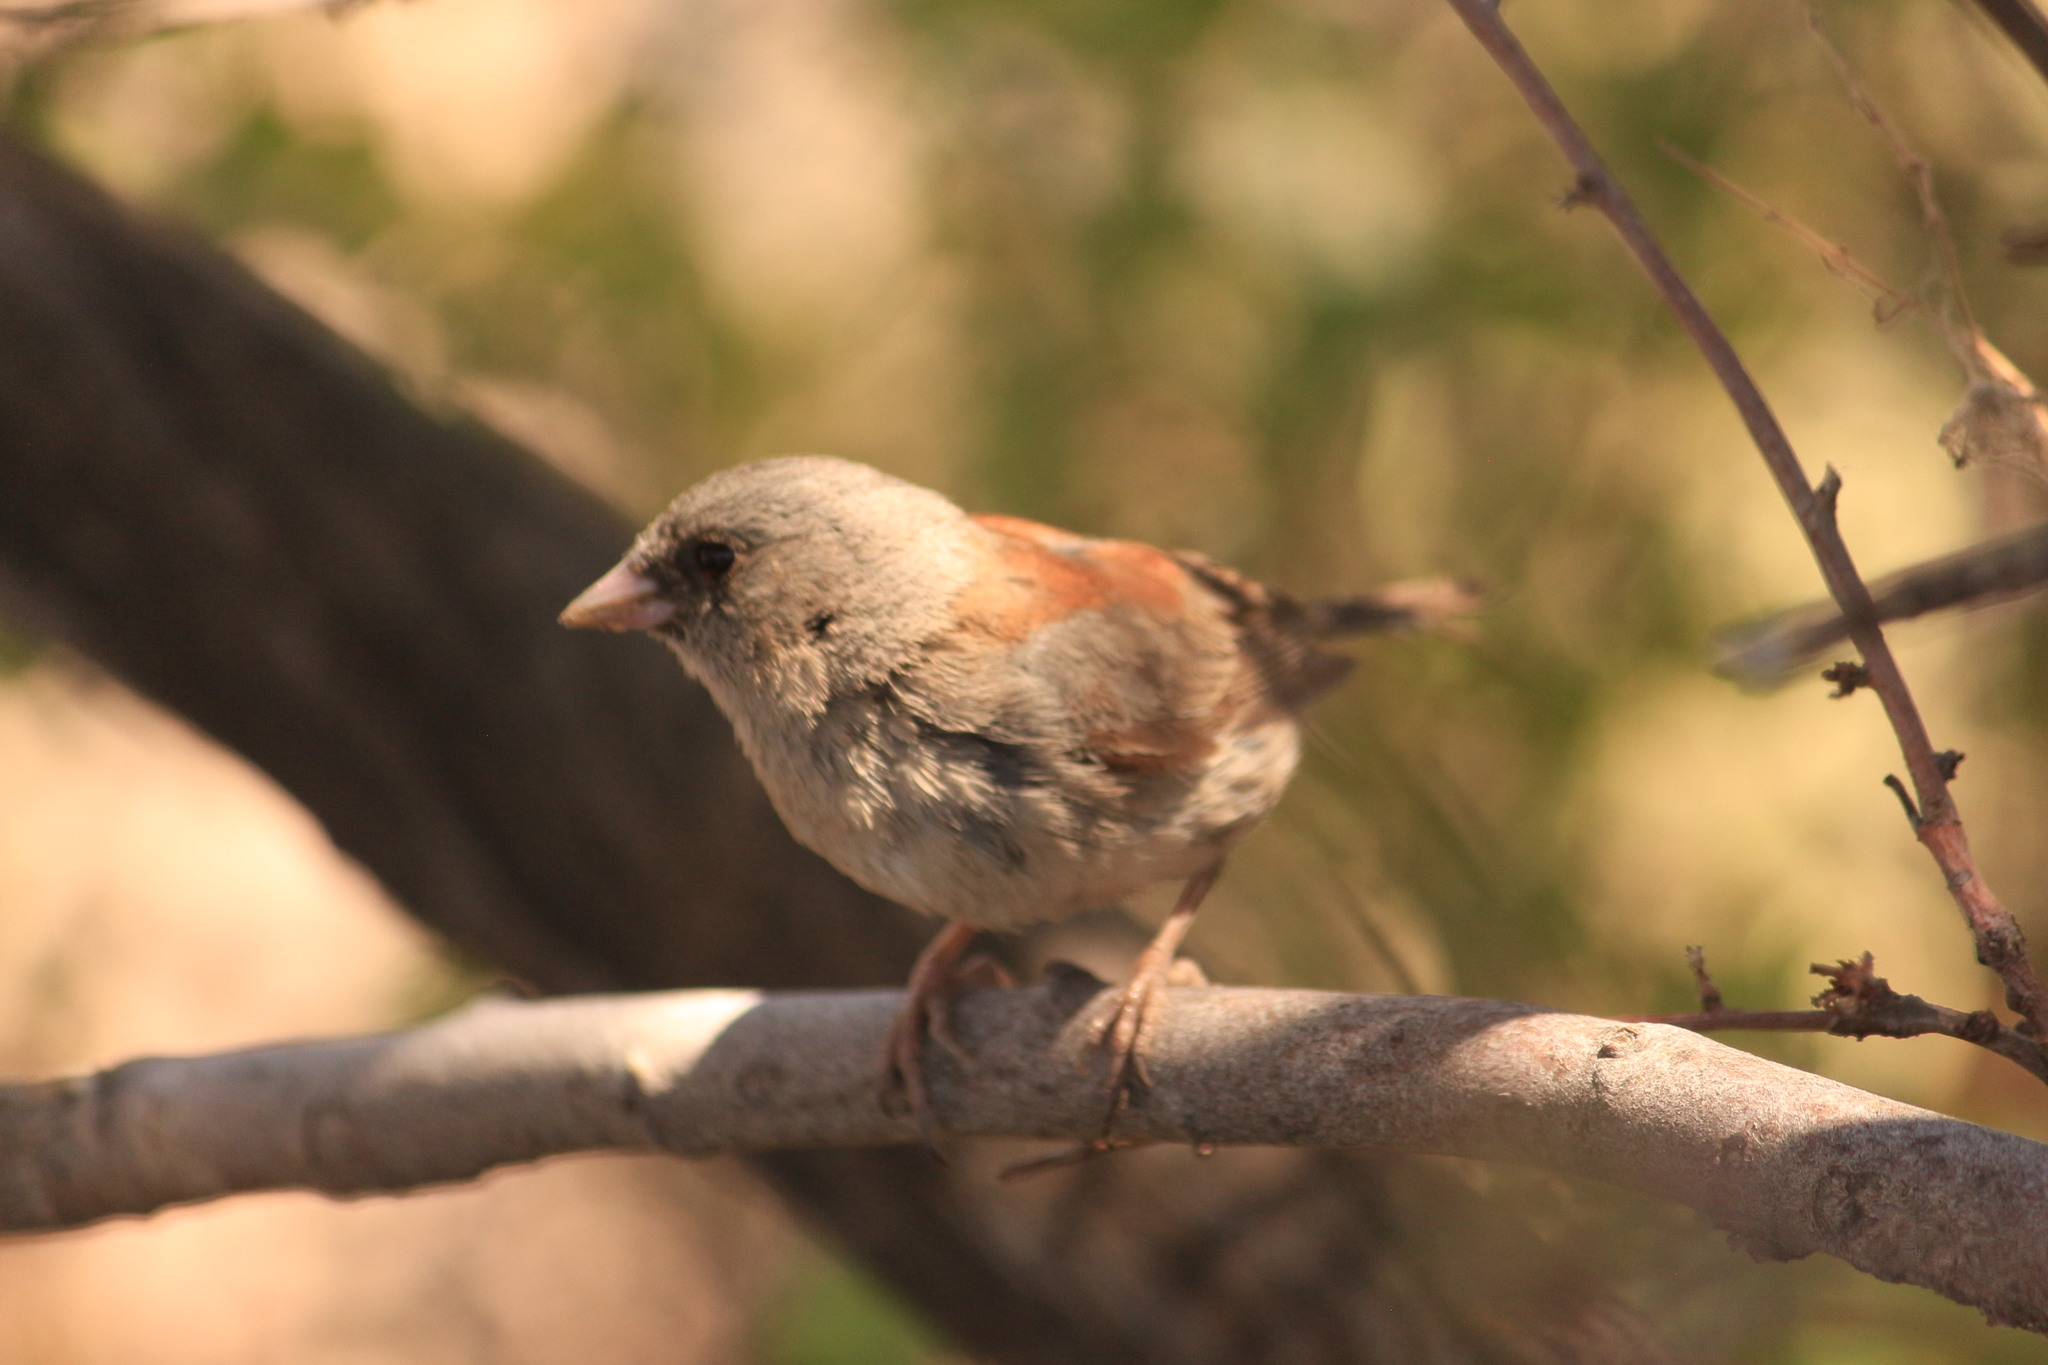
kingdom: Animalia
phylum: Chordata
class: Aves
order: Passeriformes
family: Passerellidae
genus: Junco
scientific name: Junco hyemalis
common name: Dark-eyed junco
